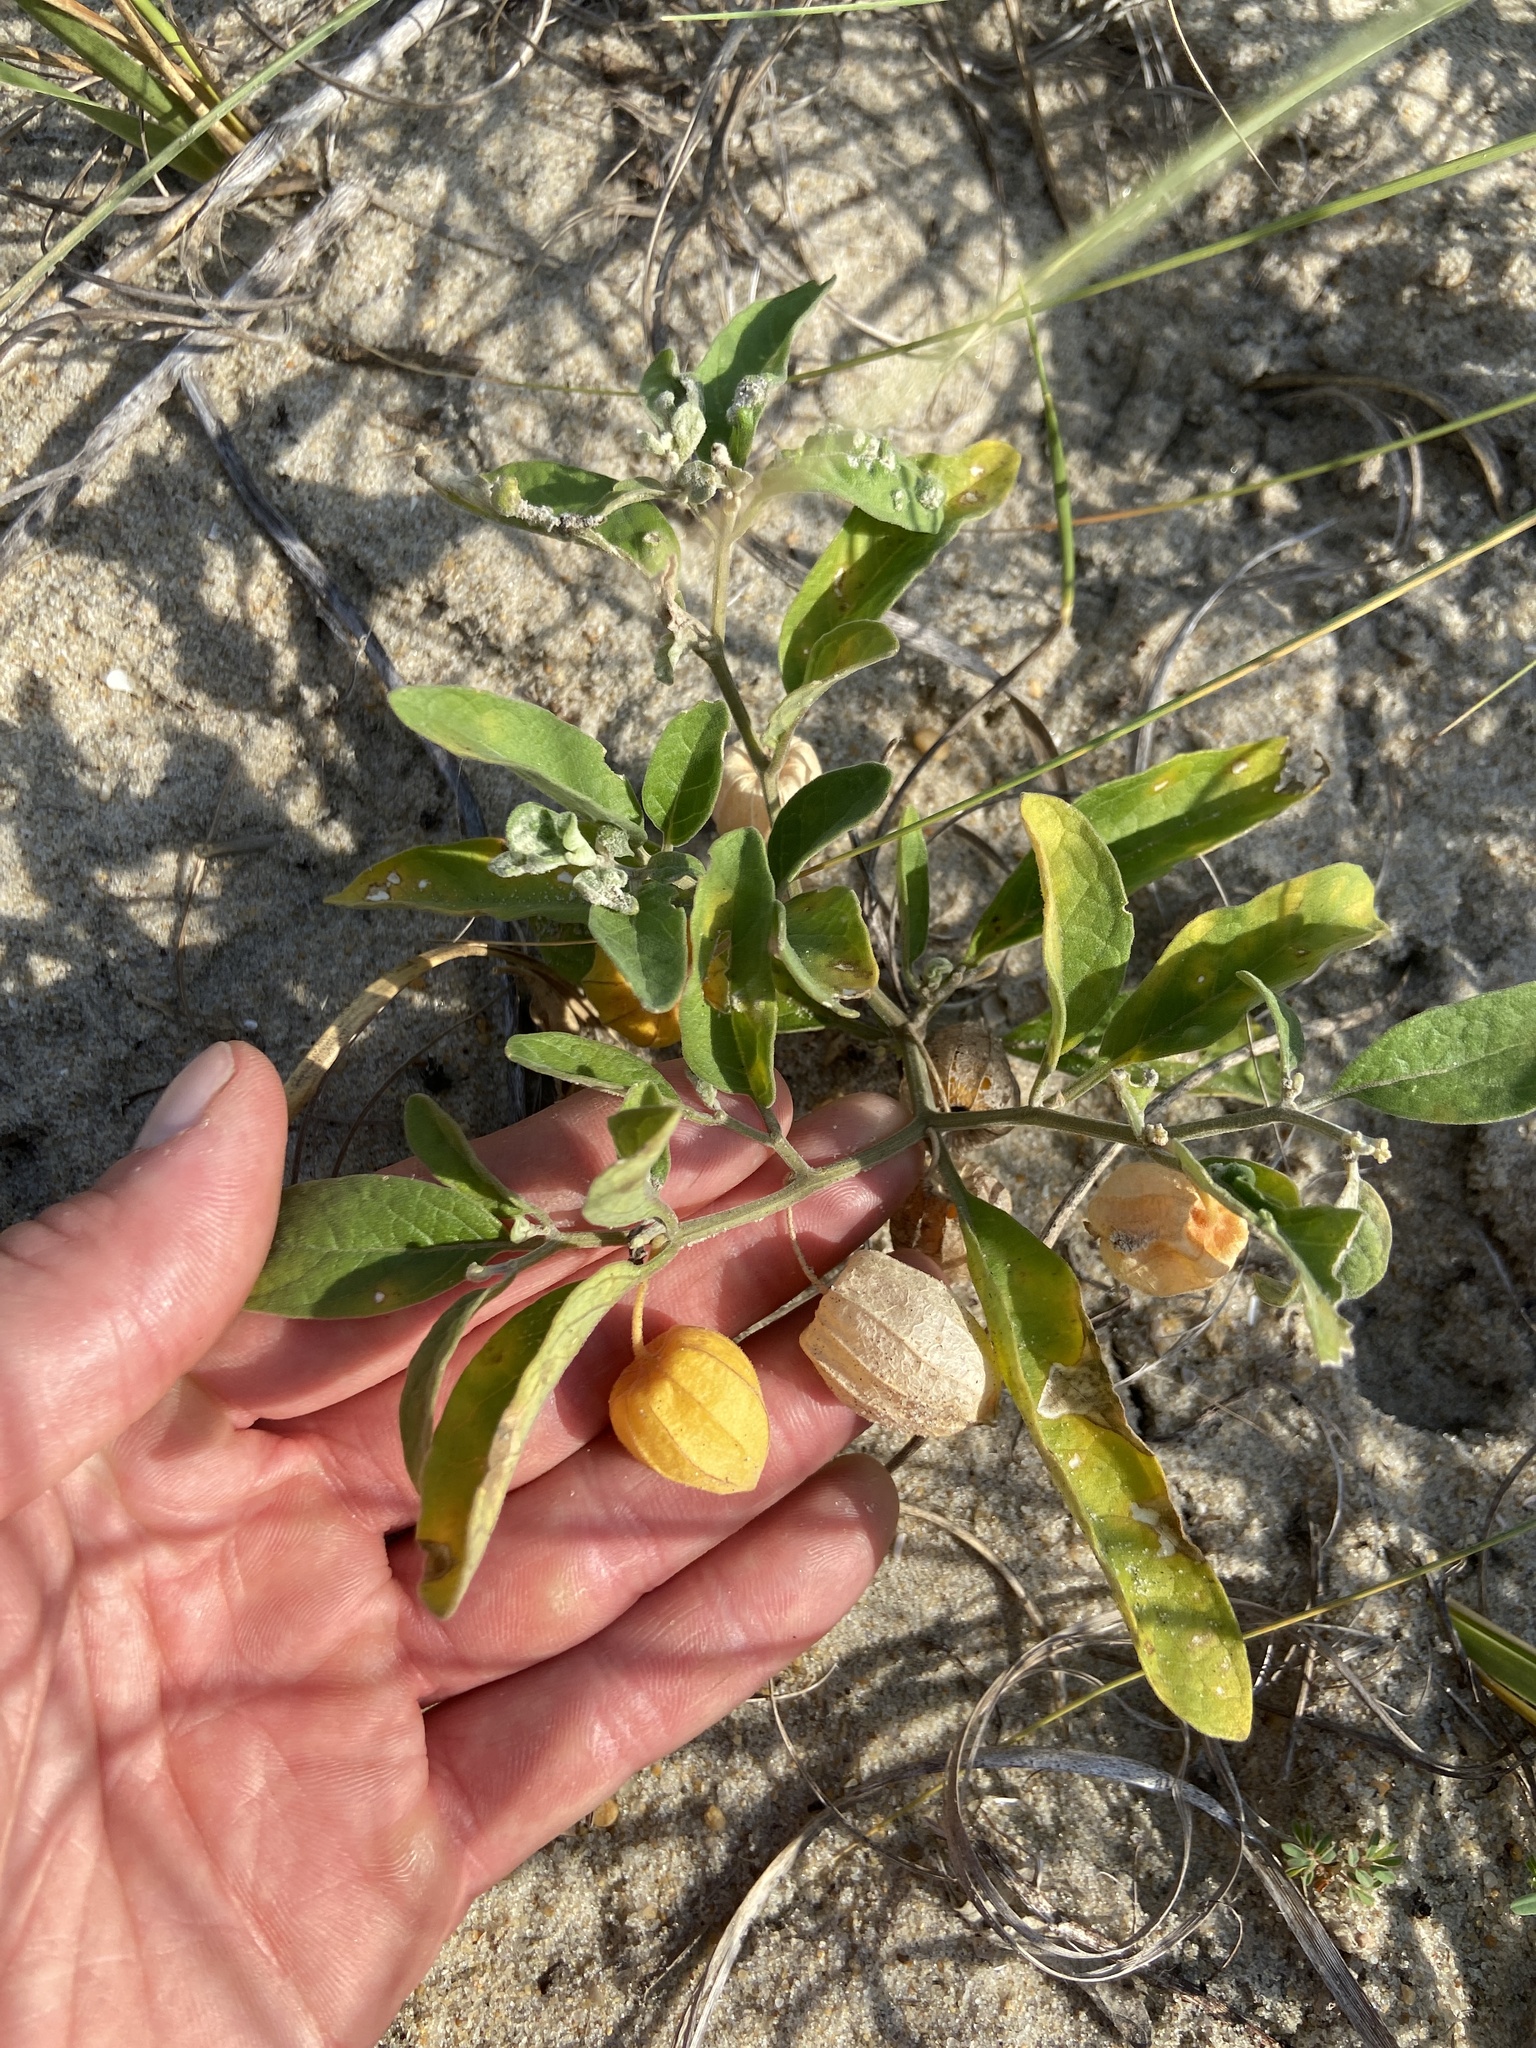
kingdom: Plantae
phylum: Tracheophyta
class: Magnoliopsida
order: Solanales
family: Solanaceae
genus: Physalis
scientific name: Physalis walteri
